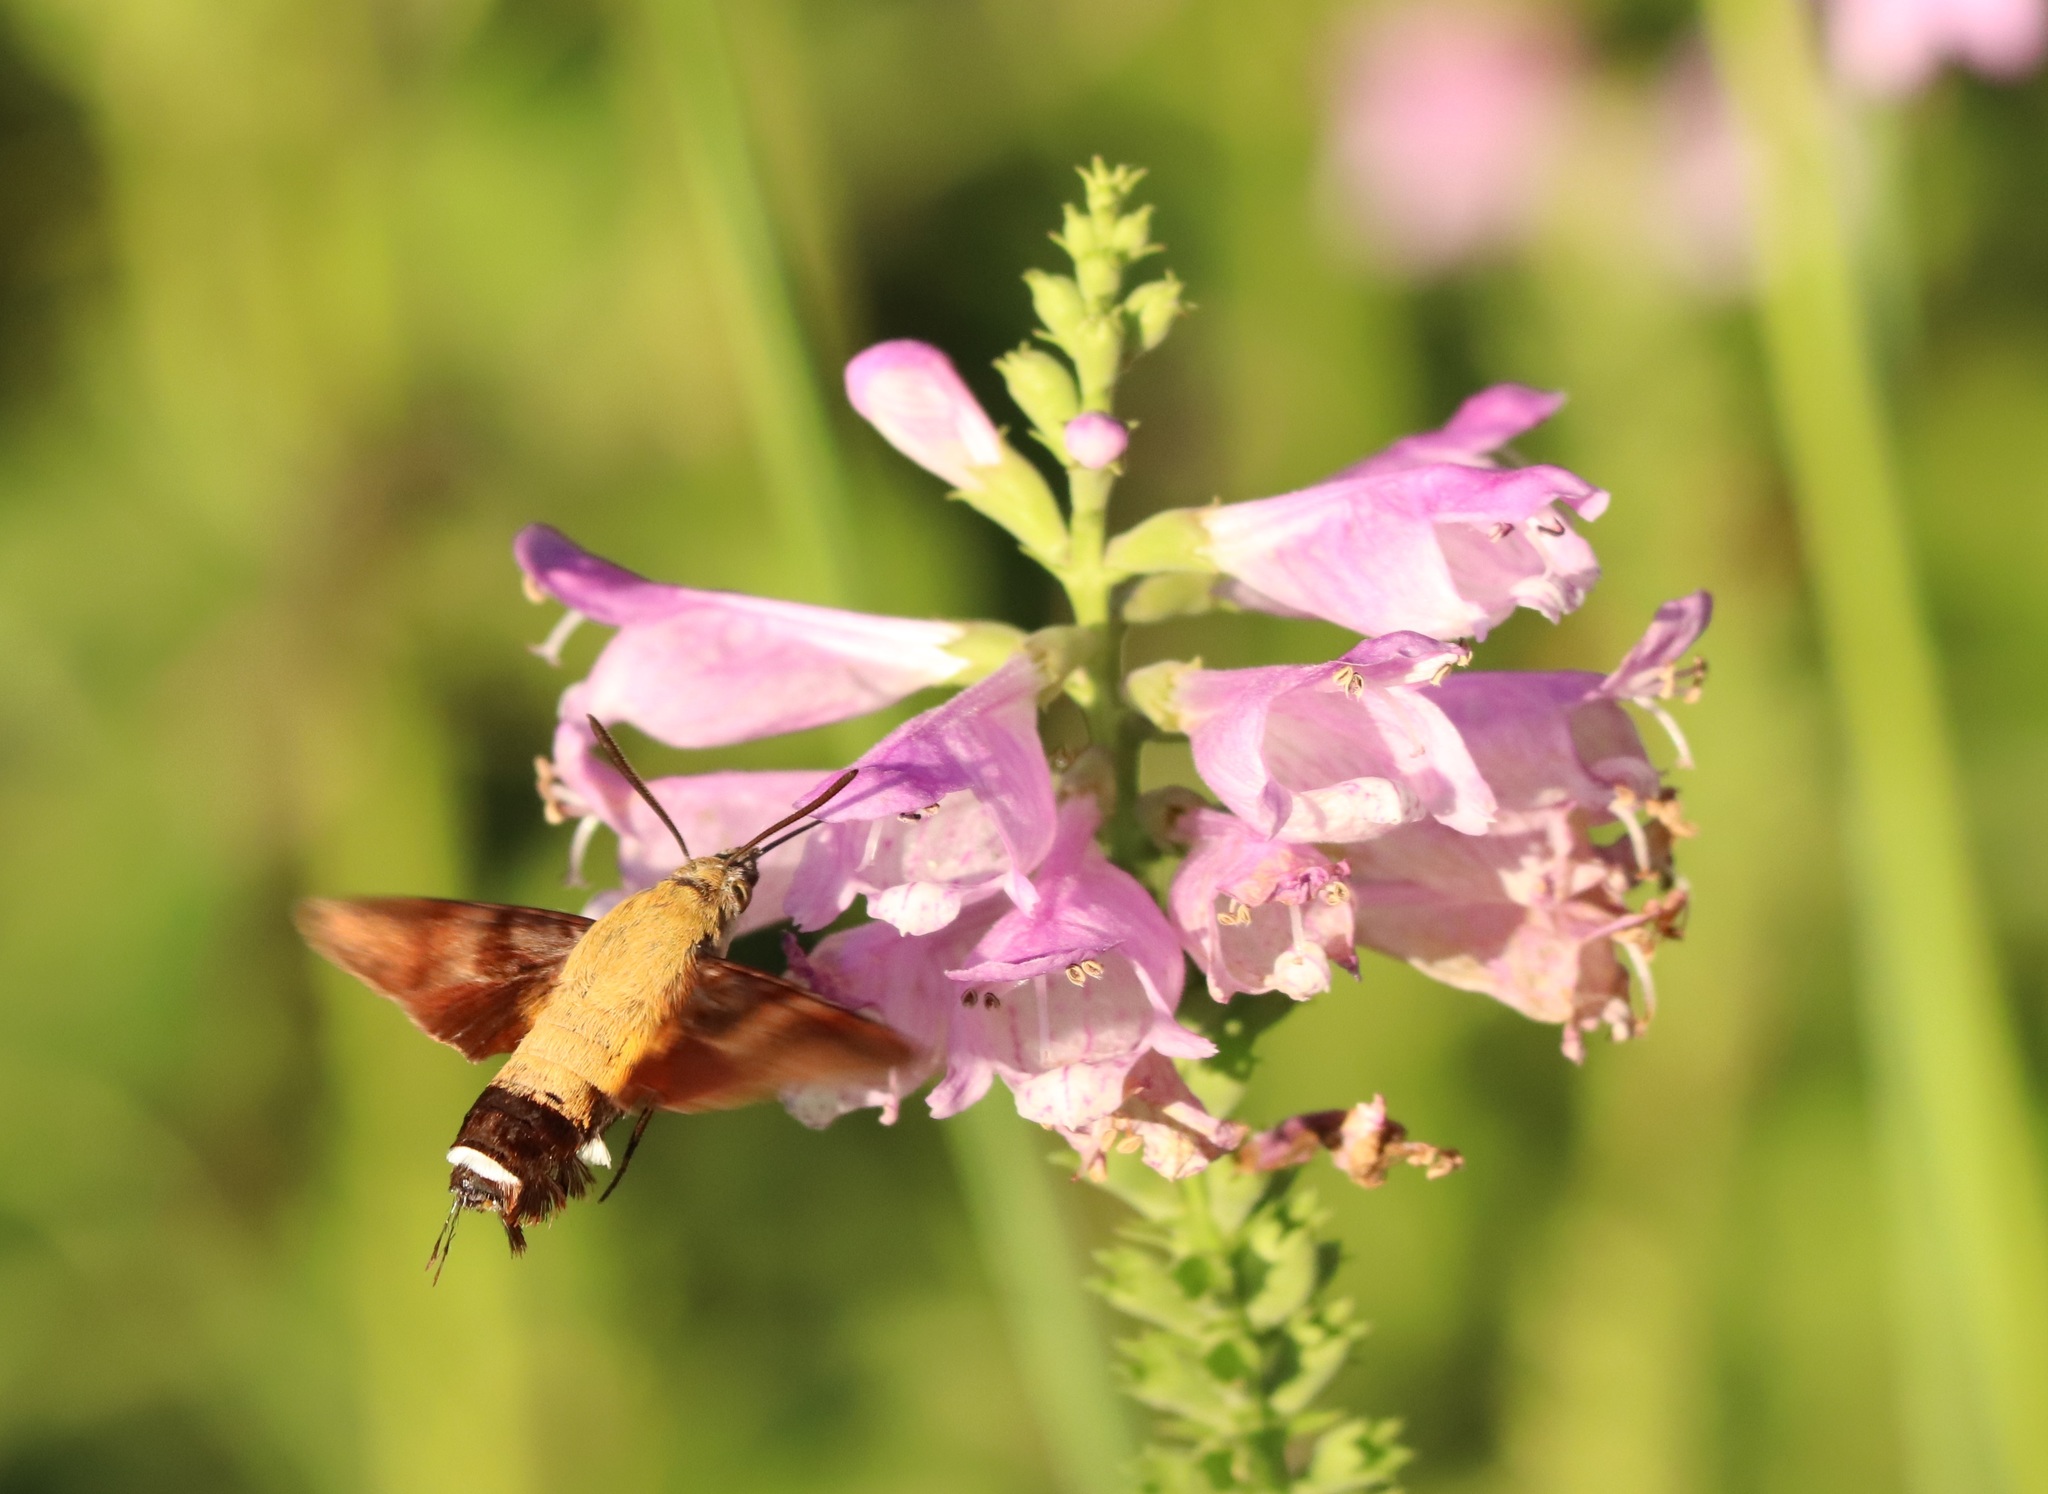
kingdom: Animalia
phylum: Arthropoda
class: Insecta
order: Lepidoptera
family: Sphingidae
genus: Macroglossum
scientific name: Macroglossum bombylans
